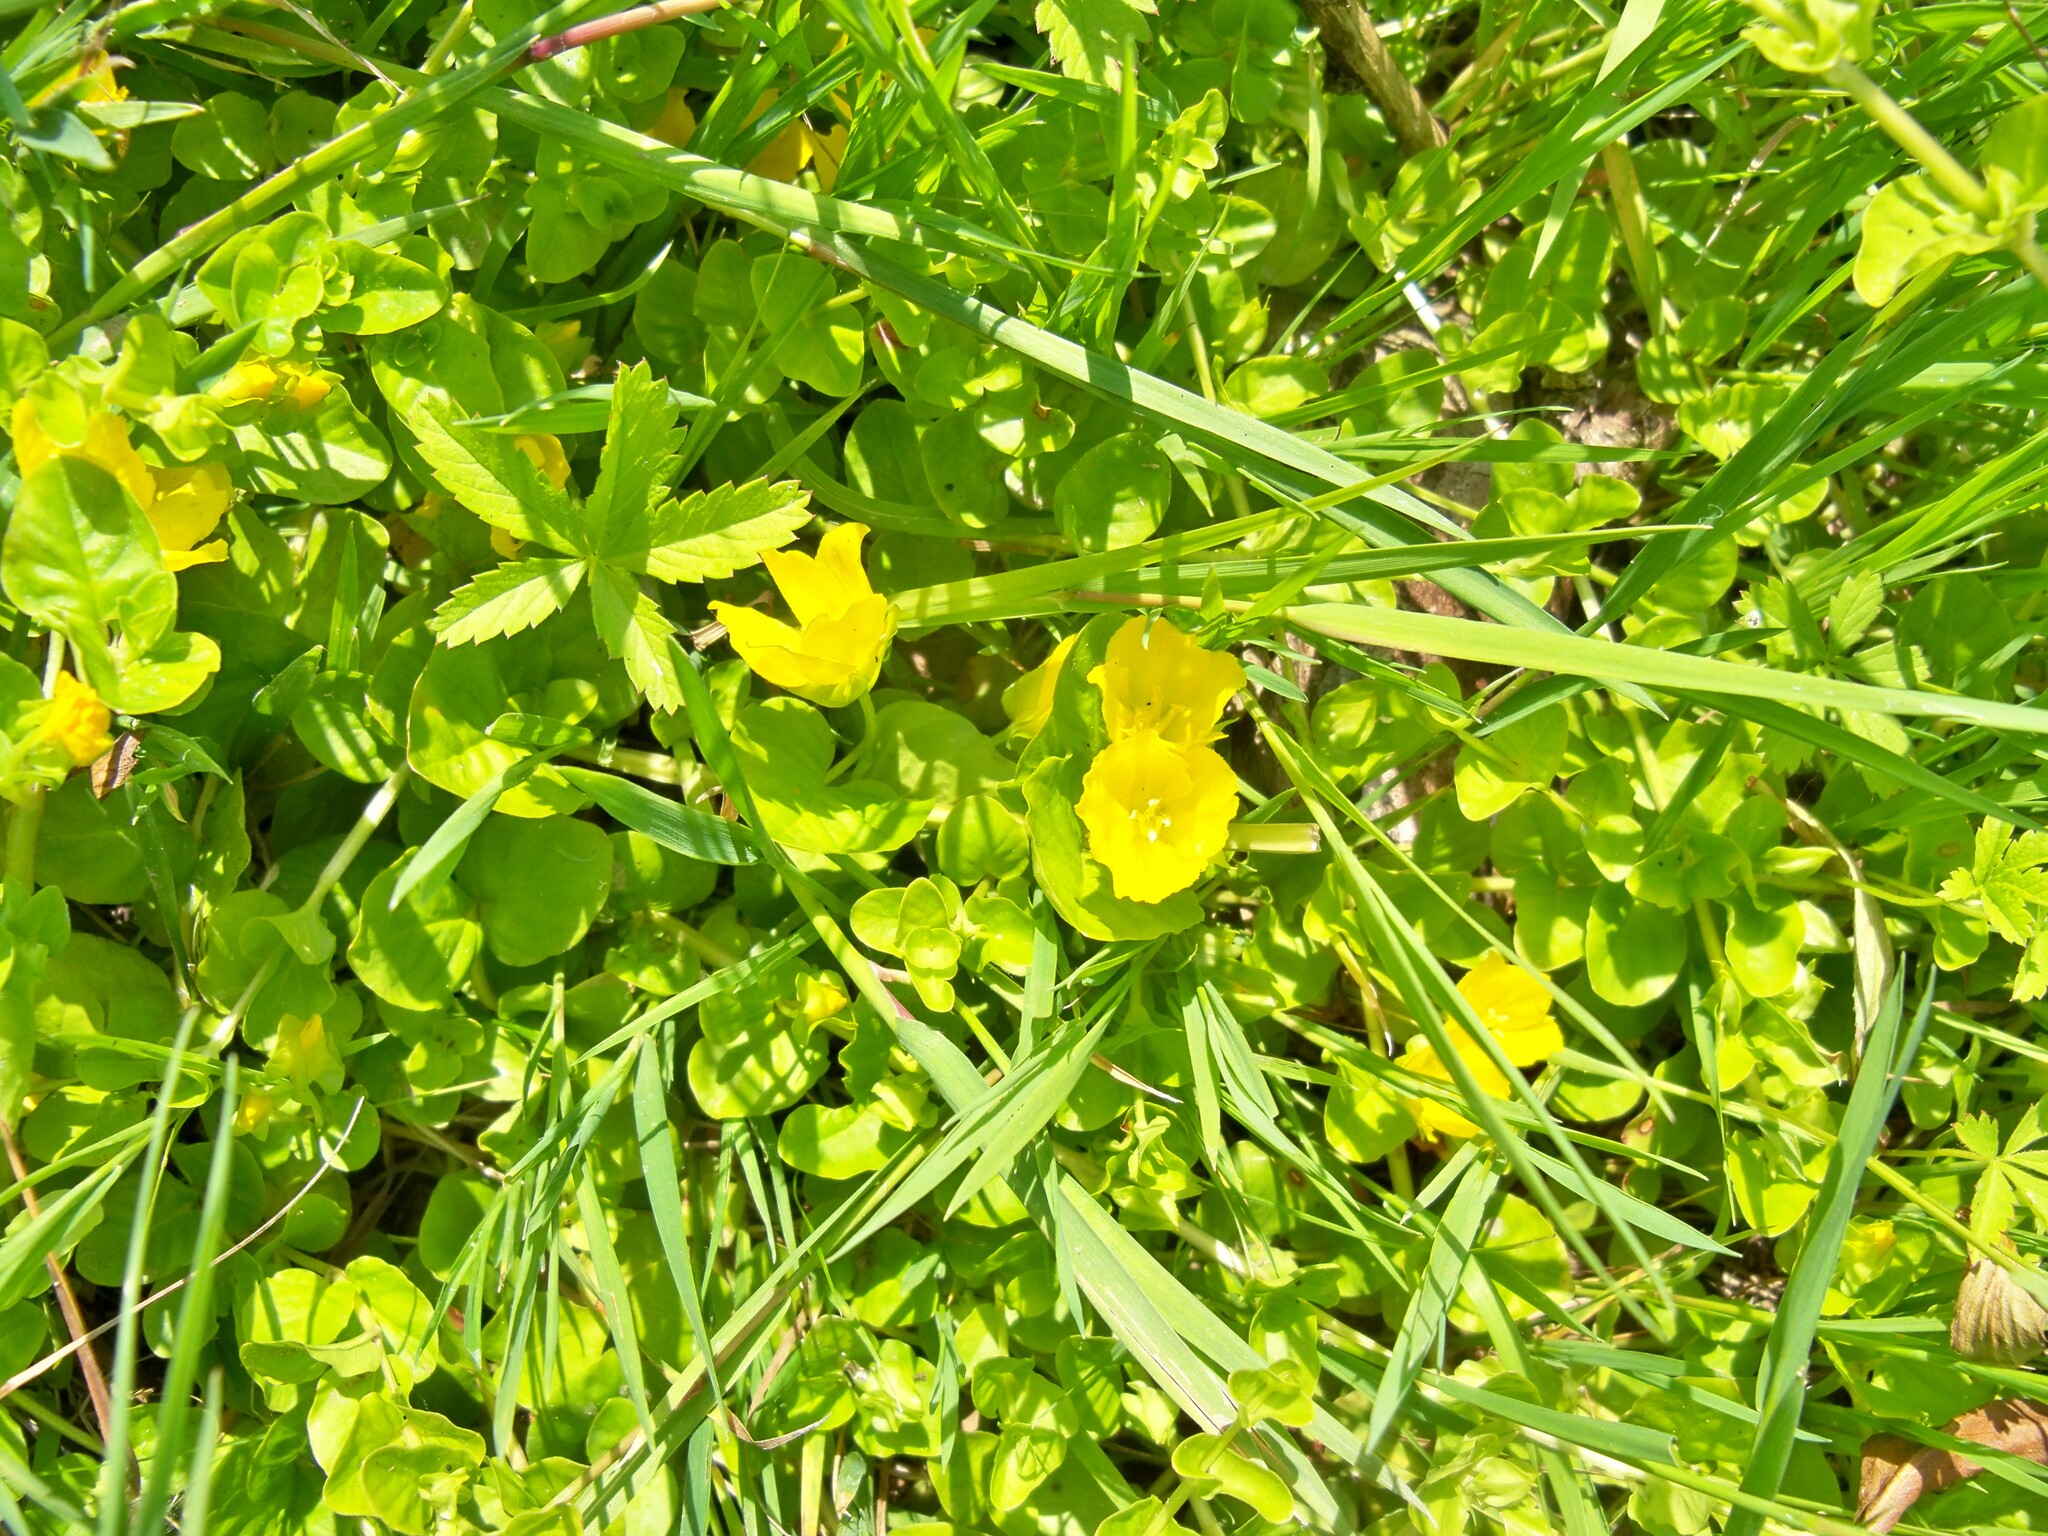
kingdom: Plantae
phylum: Tracheophyta
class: Magnoliopsida
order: Ericales
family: Primulaceae
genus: Lysimachia
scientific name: Lysimachia nummularia
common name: Moneywort
